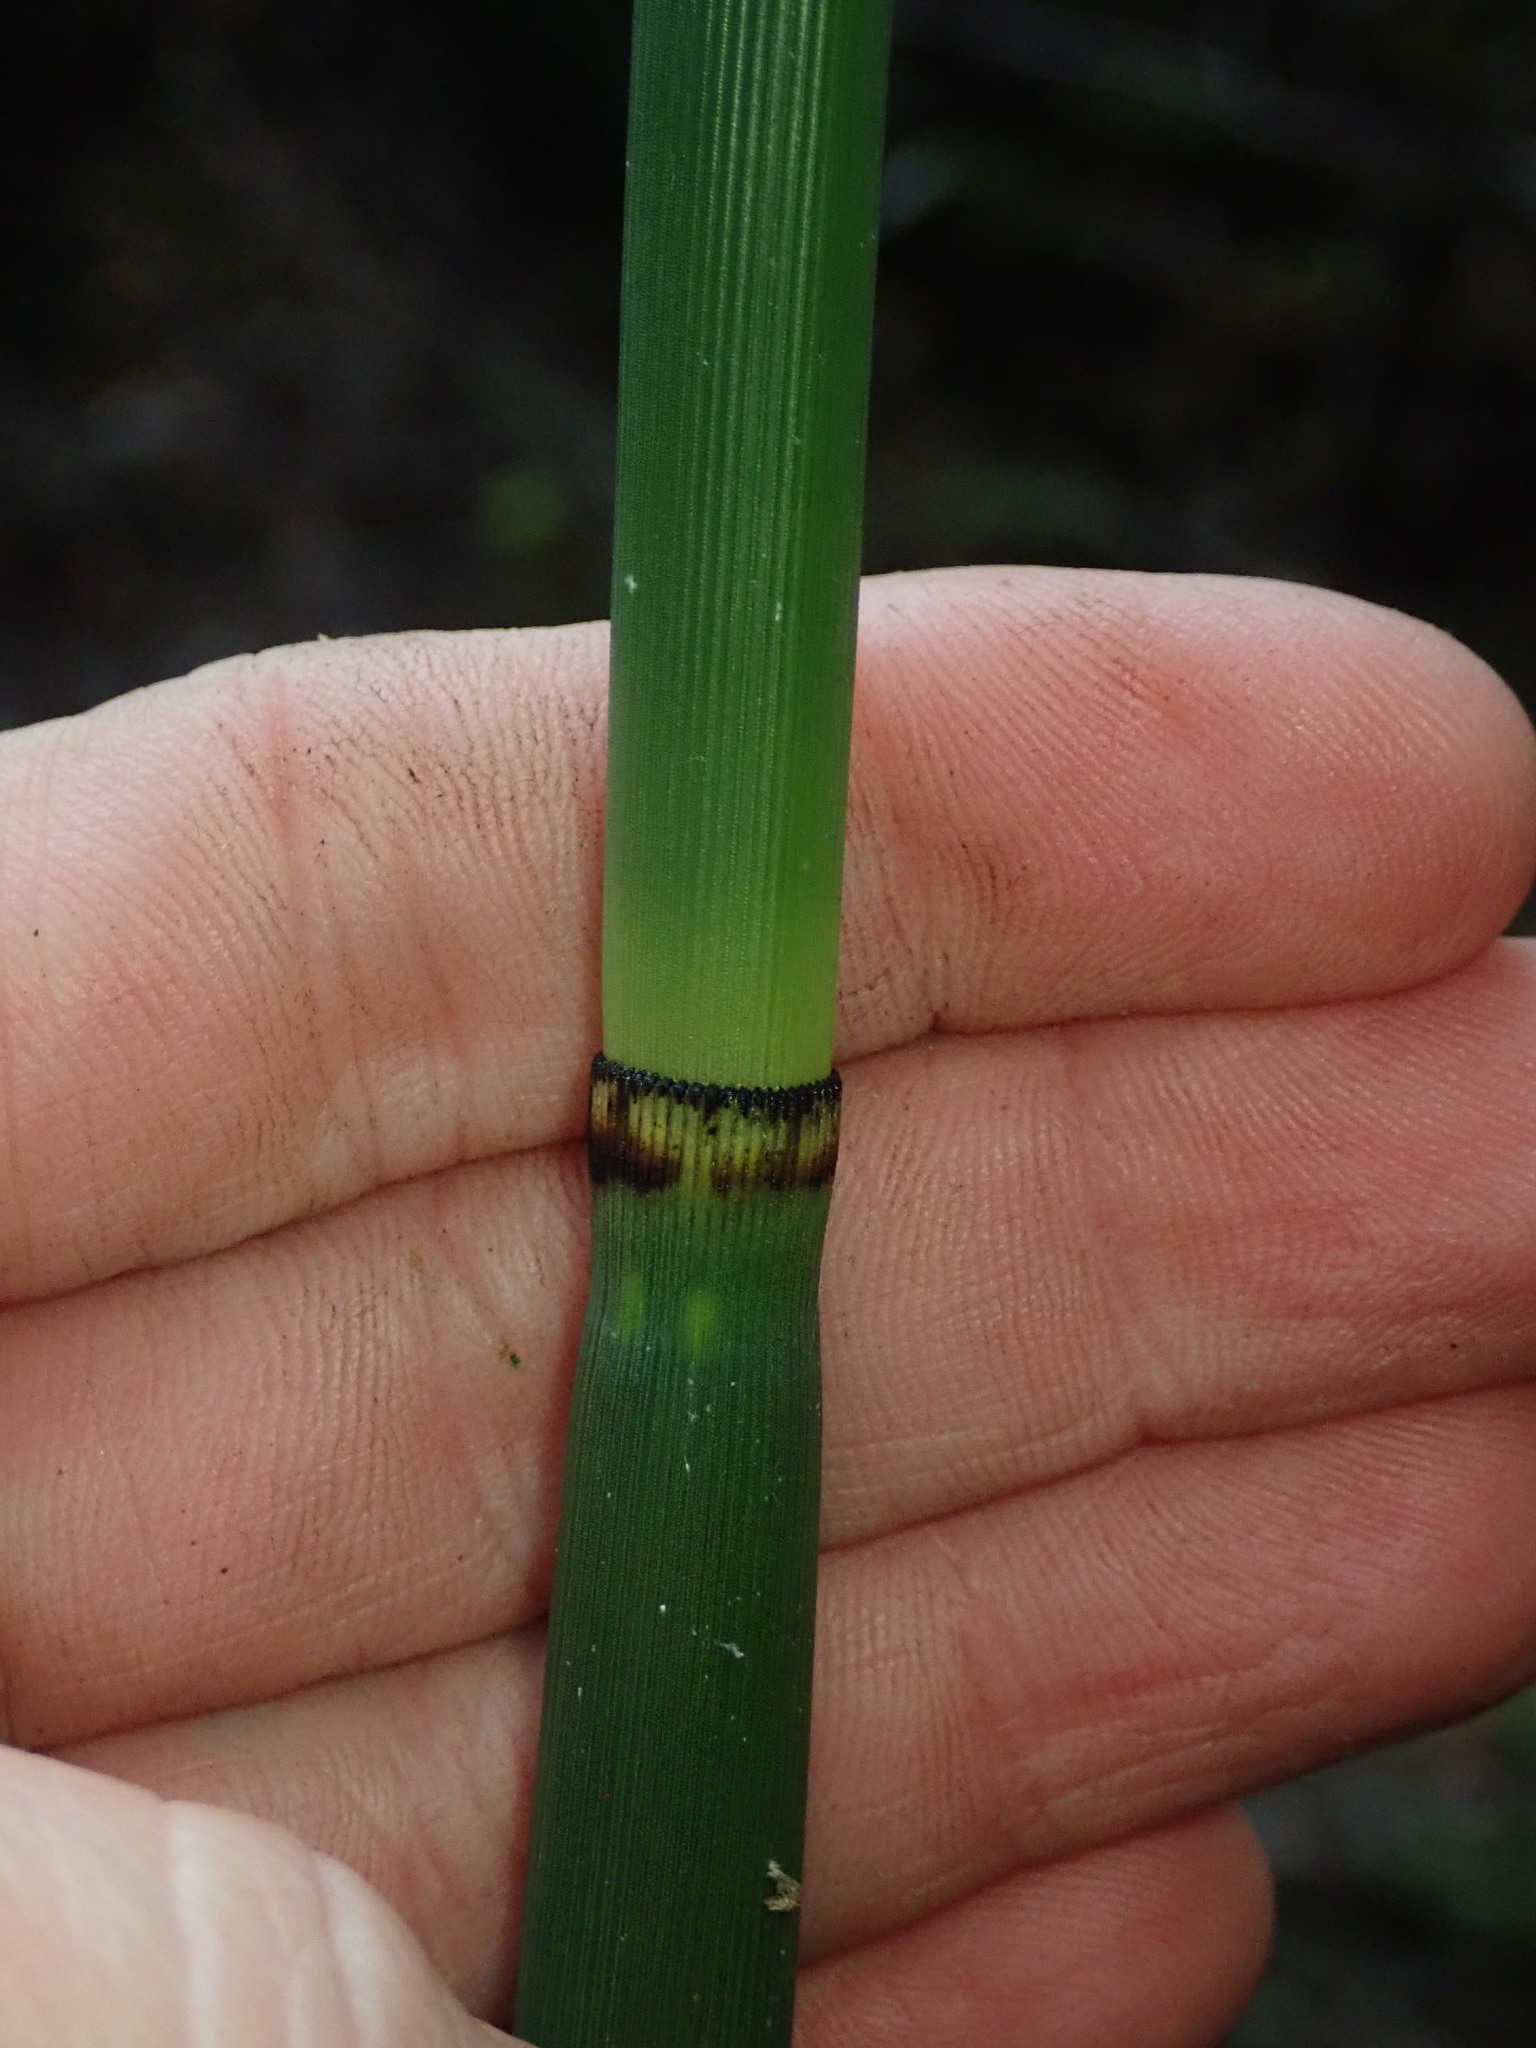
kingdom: Plantae
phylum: Tracheophyta
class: Polypodiopsida
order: Equisetales
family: Equisetaceae
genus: Equisetum
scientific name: Equisetum hyemale
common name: Rough horsetail
